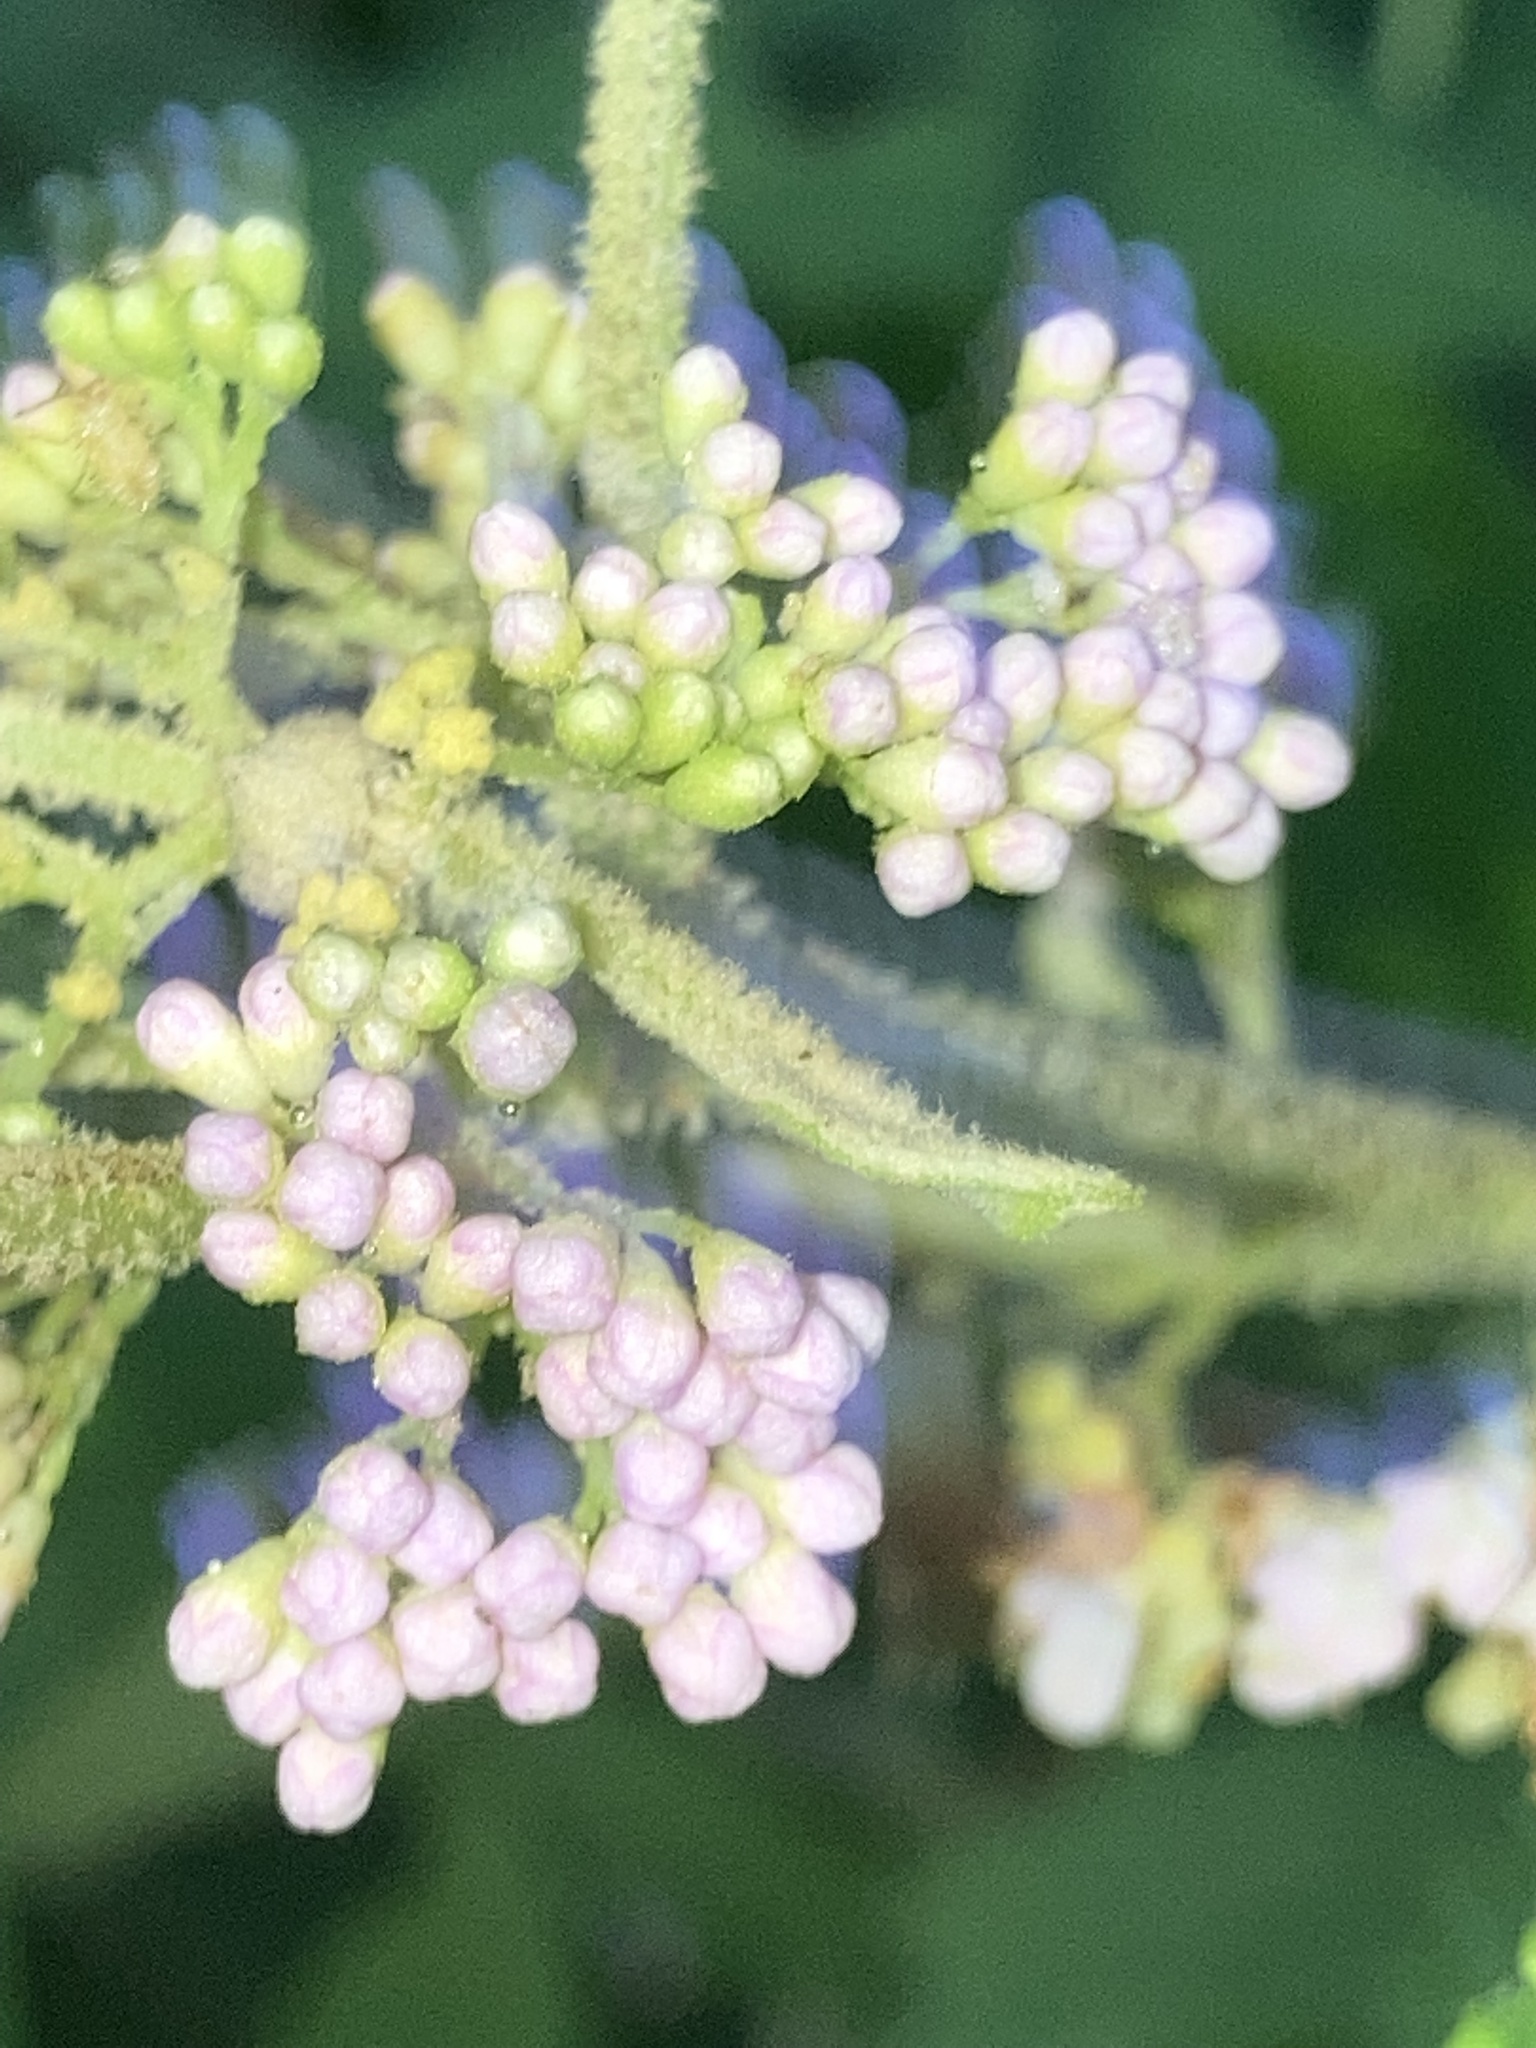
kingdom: Plantae
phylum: Tracheophyta
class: Magnoliopsida
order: Lamiales
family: Lamiaceae
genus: Callicarpa
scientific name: Callicarpa americana
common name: American beautyberry
